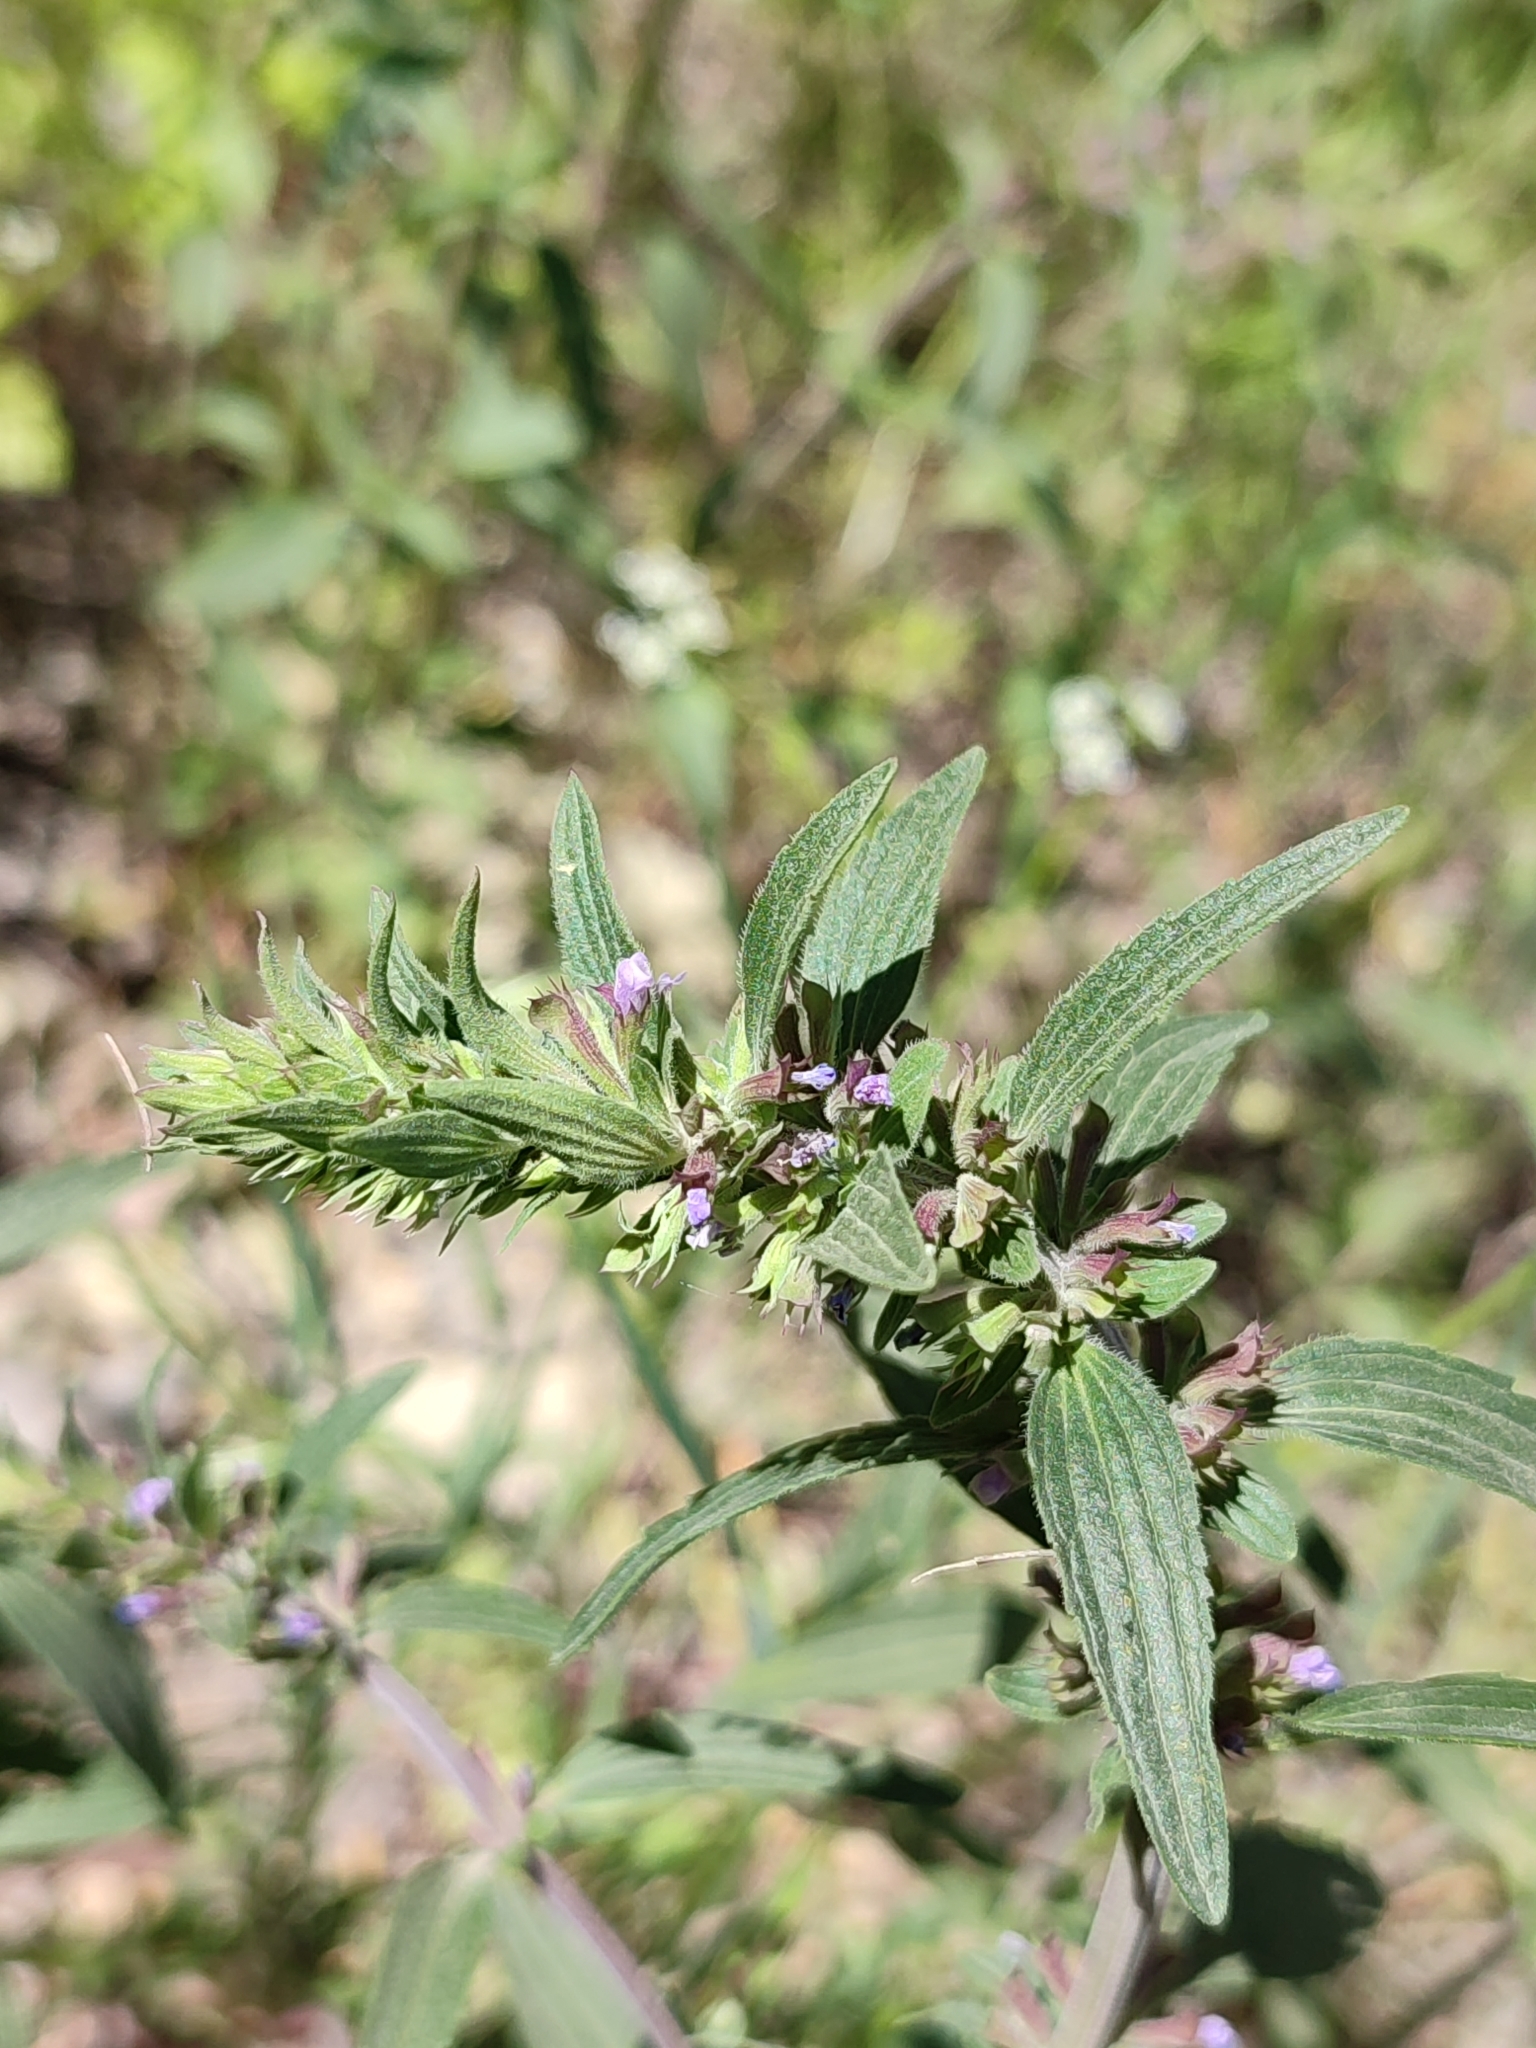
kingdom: Plantae
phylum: Tracheophyta
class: Magnoliopsida
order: Lamiales
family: Lamiaceae
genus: Dracocephalum
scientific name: Dracocephalum thymiflorum
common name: Thymeleaf dragonhead
